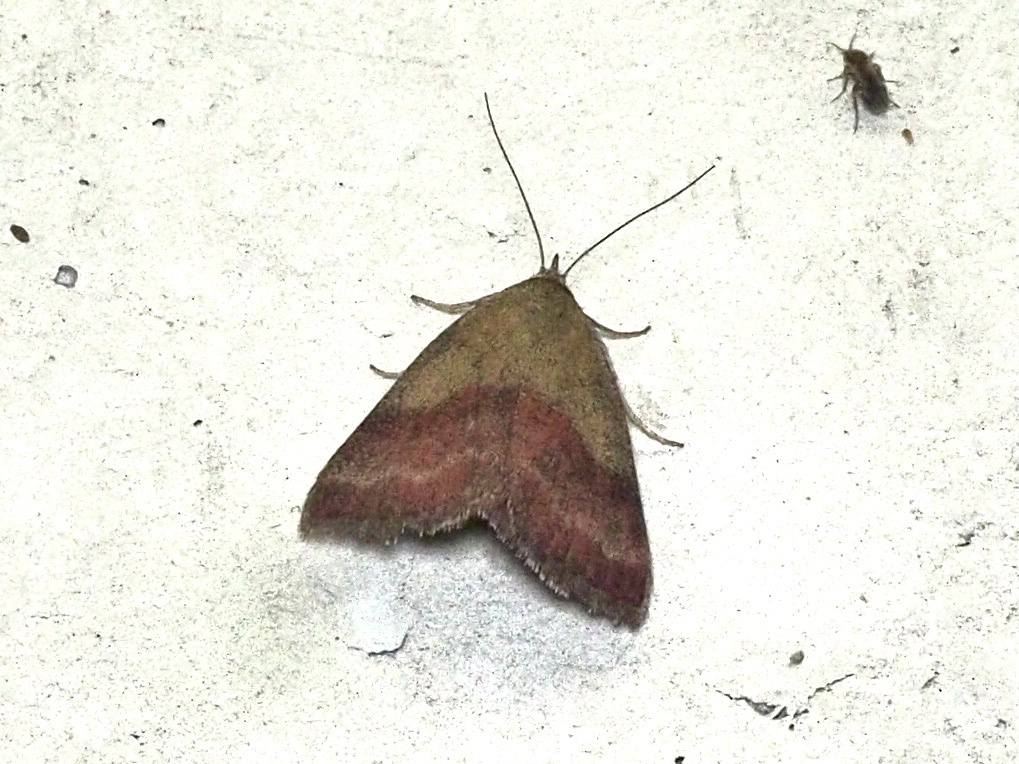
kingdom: Animalia
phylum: Arthropoda
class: Insecta
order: Lepidoptera
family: Erebidae
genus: Phytometra
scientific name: Phytometra viridaria
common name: Small purple-barred
